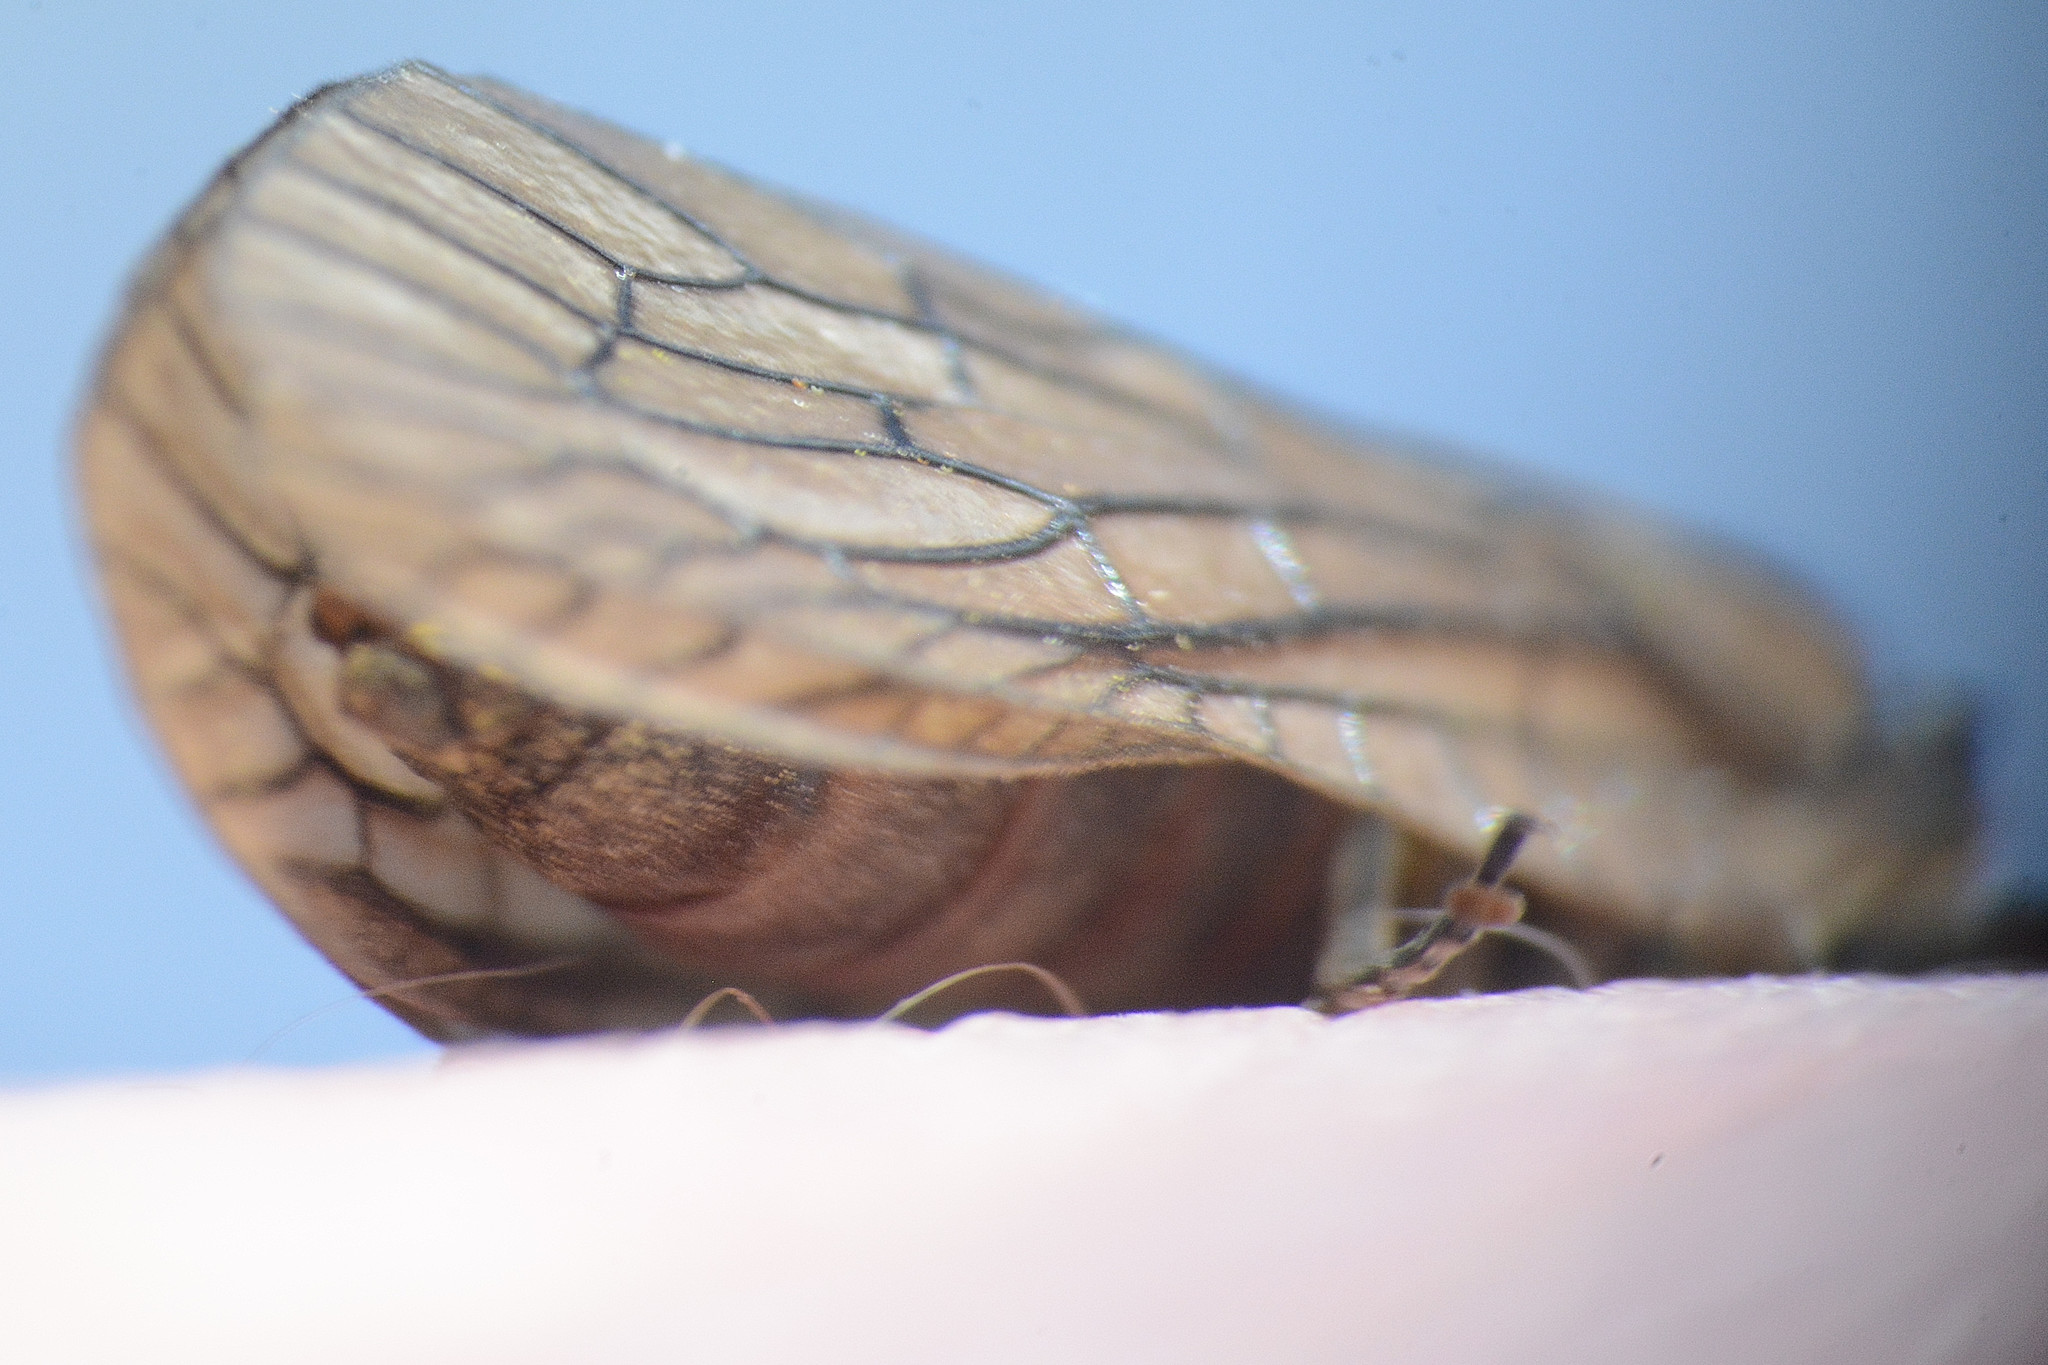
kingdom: Animalia
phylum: Arthropoda
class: Insecta
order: Megaloptera
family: Sialidae
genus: Sialis
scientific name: Sialis
